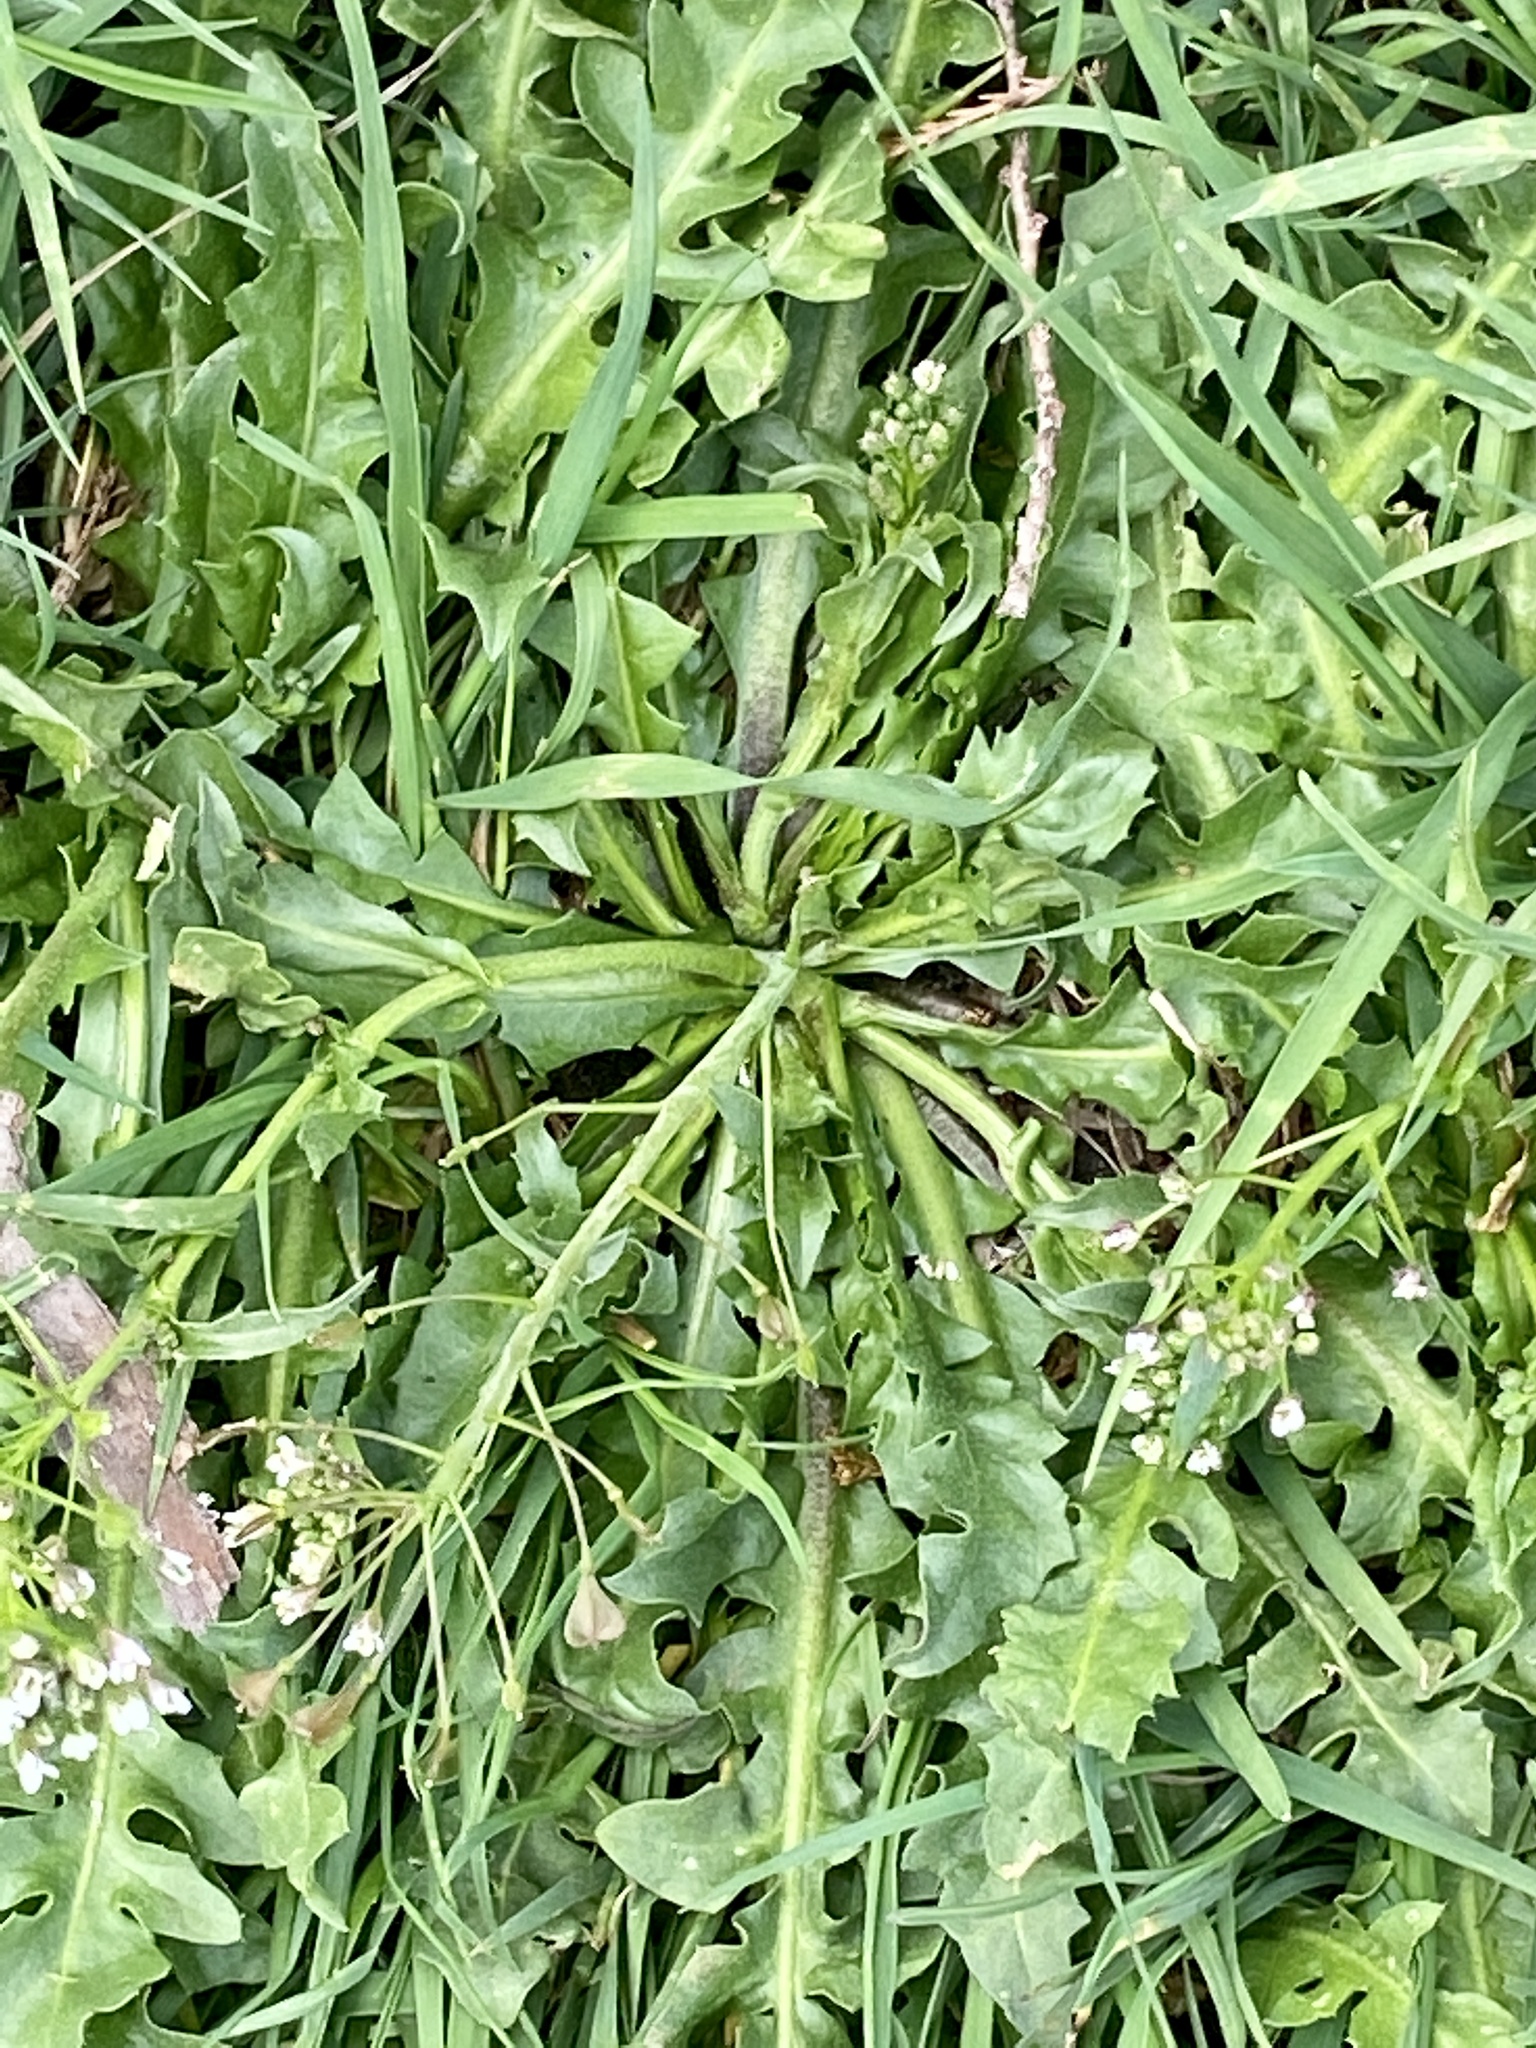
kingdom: Plantae
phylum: Tracheophyta
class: Magnoliopsida
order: Brassicales
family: Brassicaceae
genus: Capsella
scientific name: Capsella bursa-pastoris
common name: Shepherd's purse
